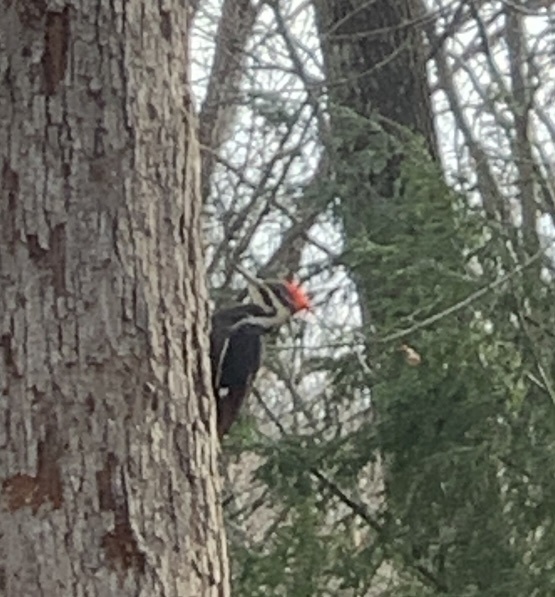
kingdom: Animalia
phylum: Chordata
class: Aves
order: Piciformes
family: Picidae
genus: Dryocopus
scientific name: Dryocopus pileatus
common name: Pileated woodpecker
